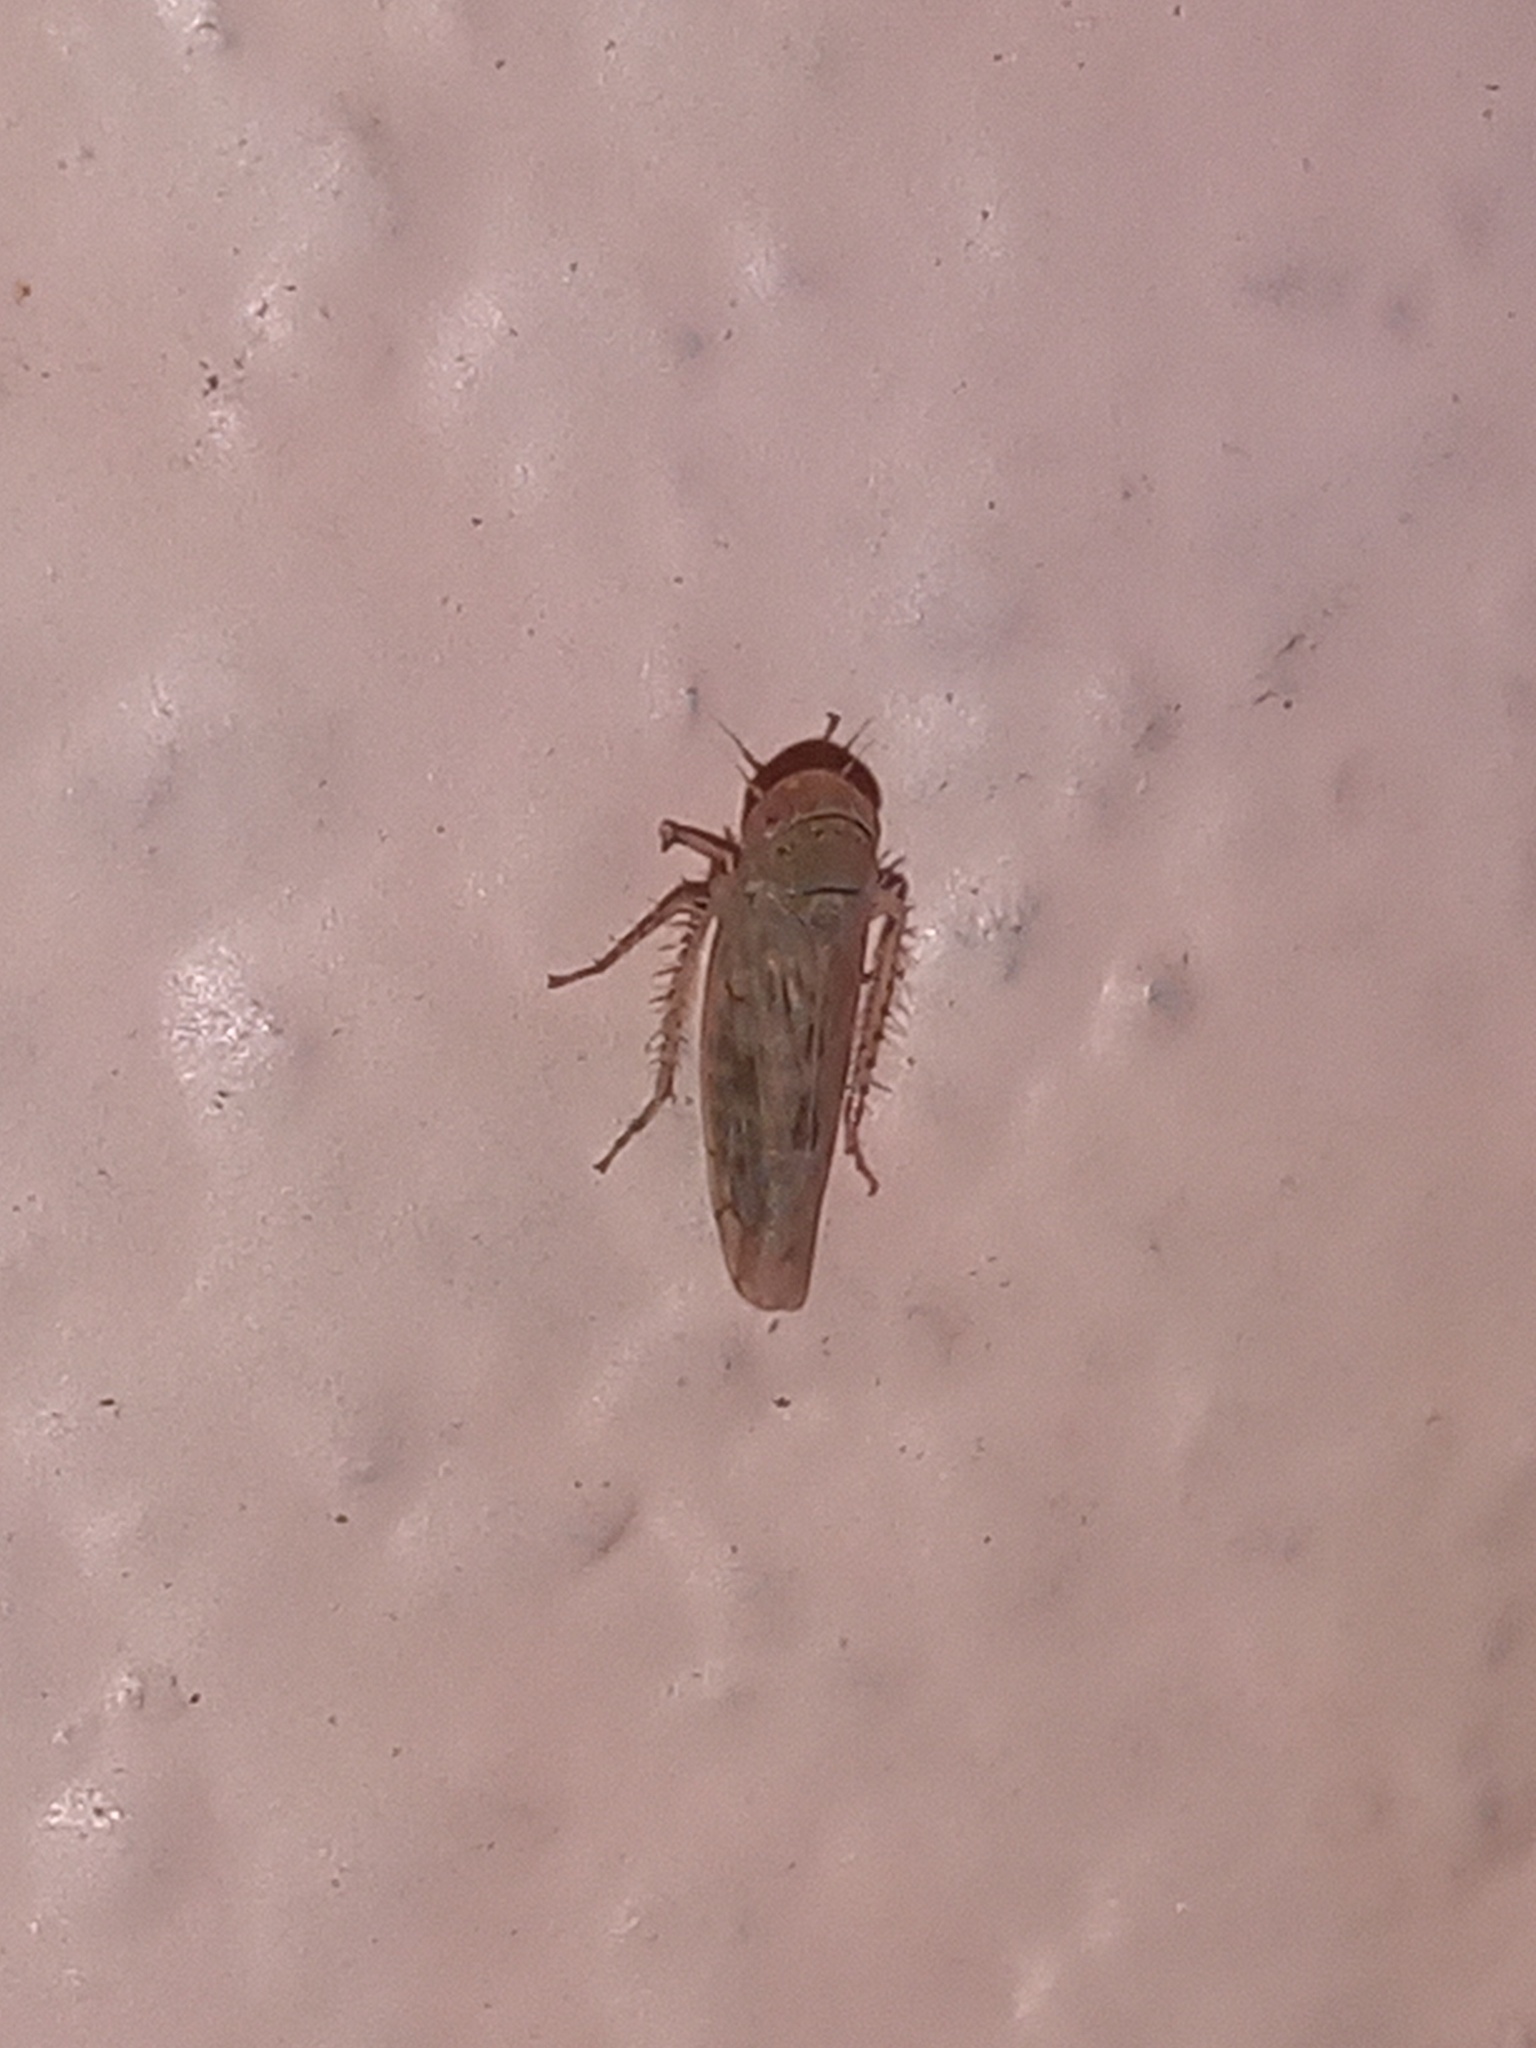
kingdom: Animalia
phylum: Arthropoda
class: Insecta
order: Hemiptera
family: Cicadellidae
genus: Neoaliturus
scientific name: Neoaliturus tenellus
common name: Leafhopper
